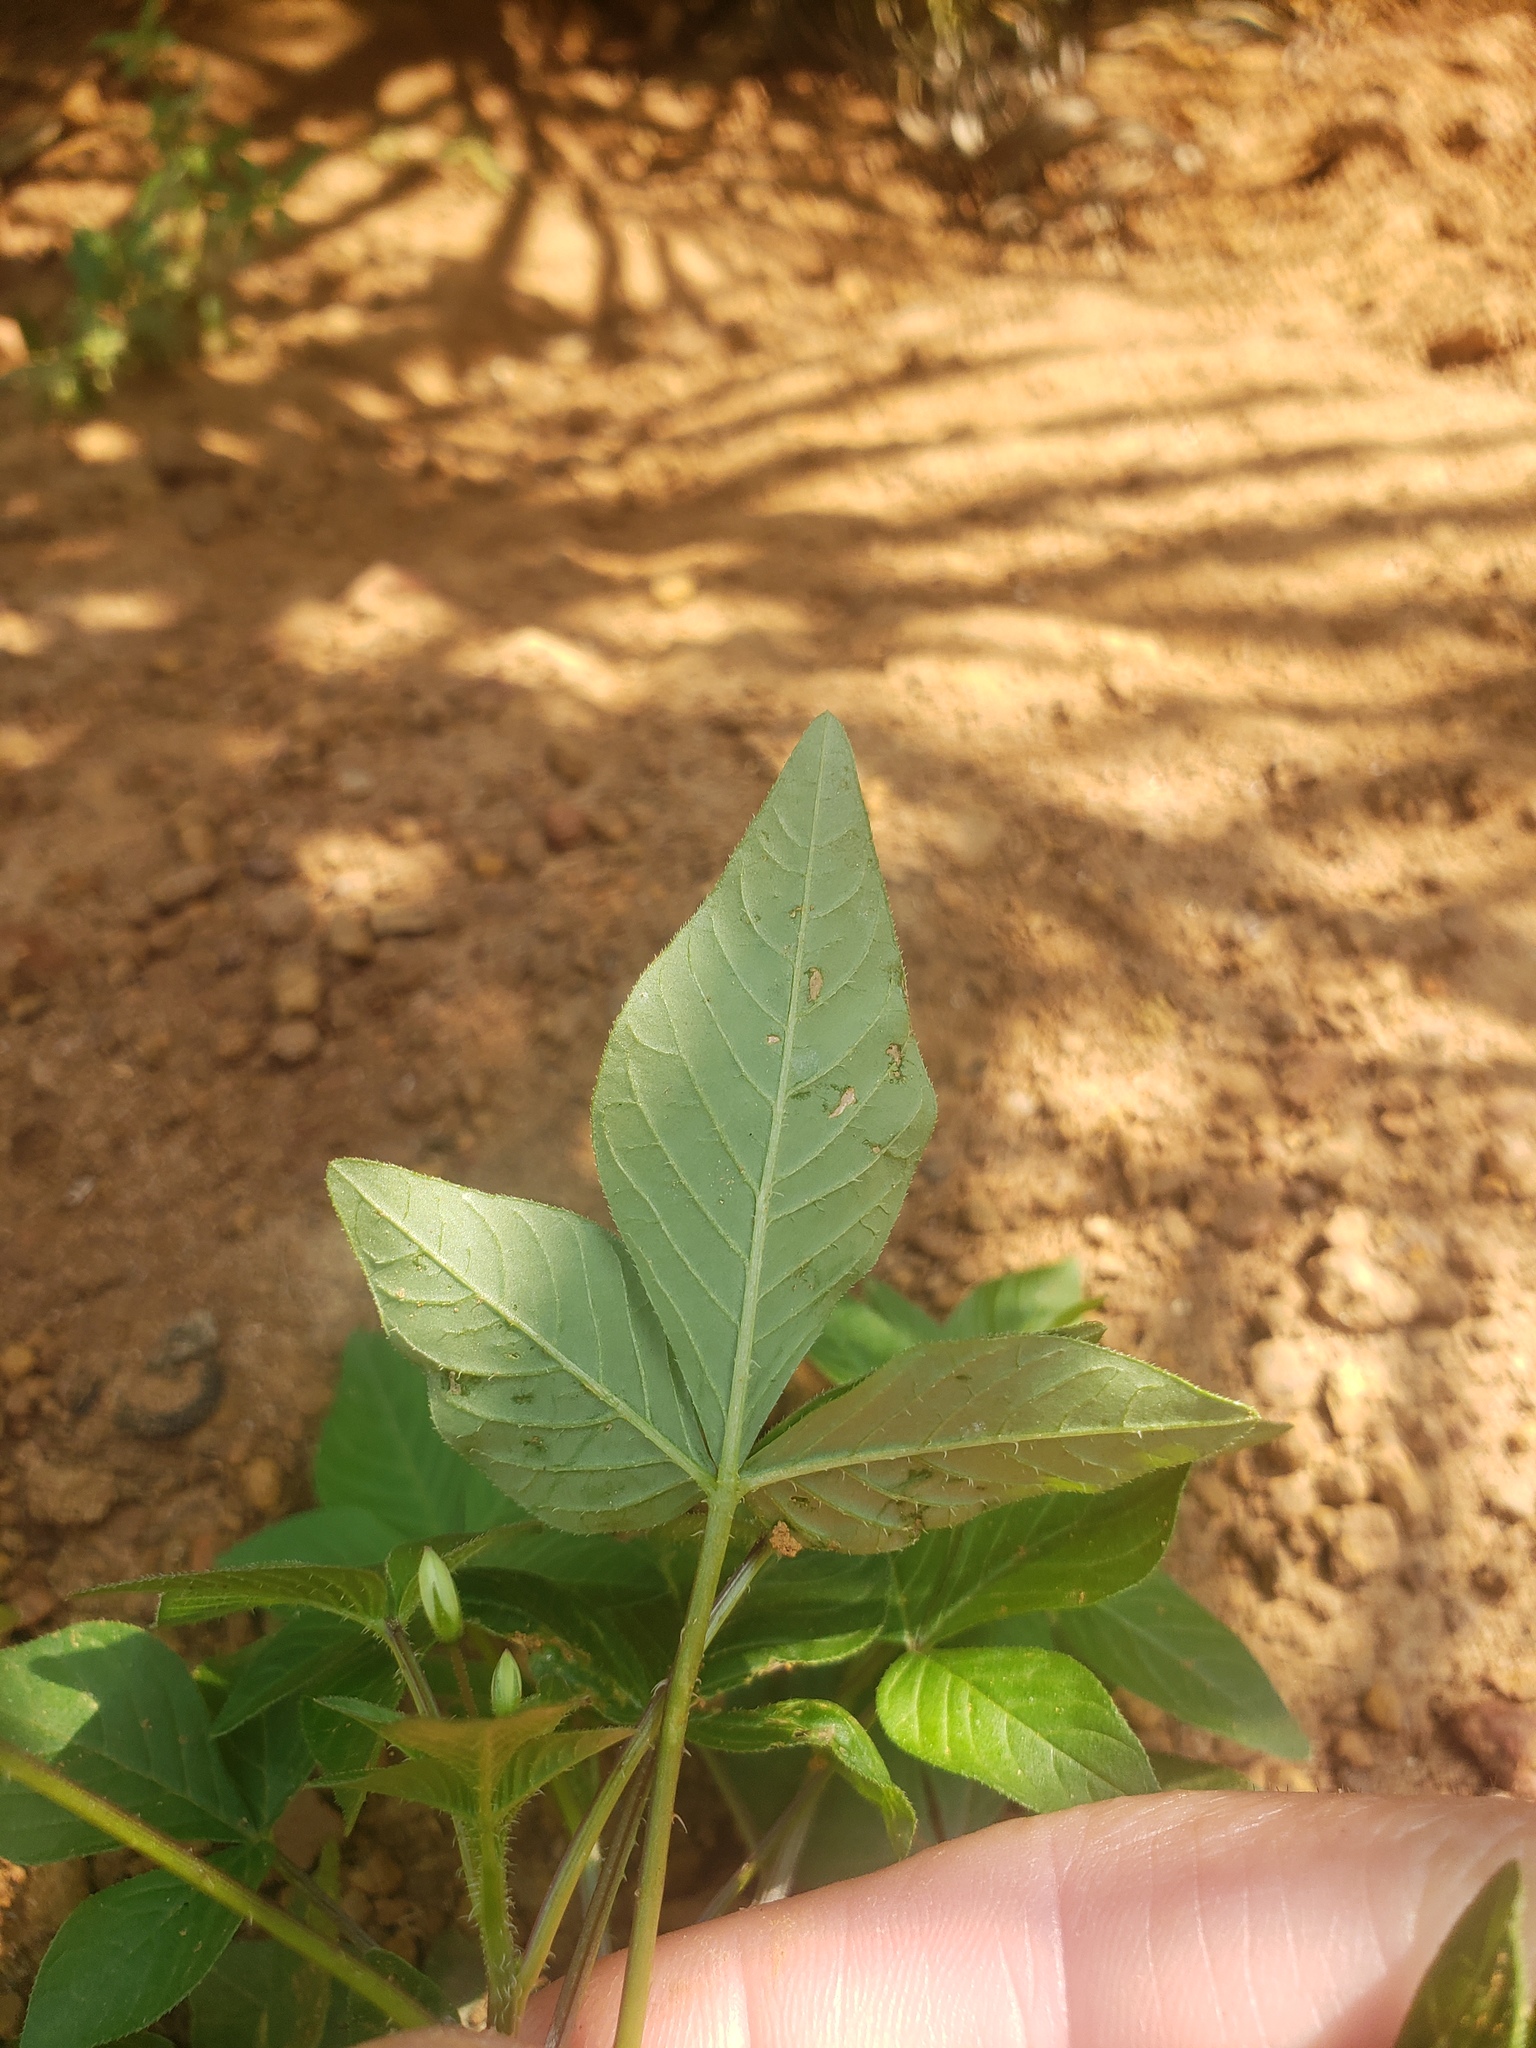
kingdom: Plantae
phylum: Tracheophyta
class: Magnoliopsida
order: Brassicales
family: Cleomaceae
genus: Sieruela
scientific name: Sieruela rutidosperma
